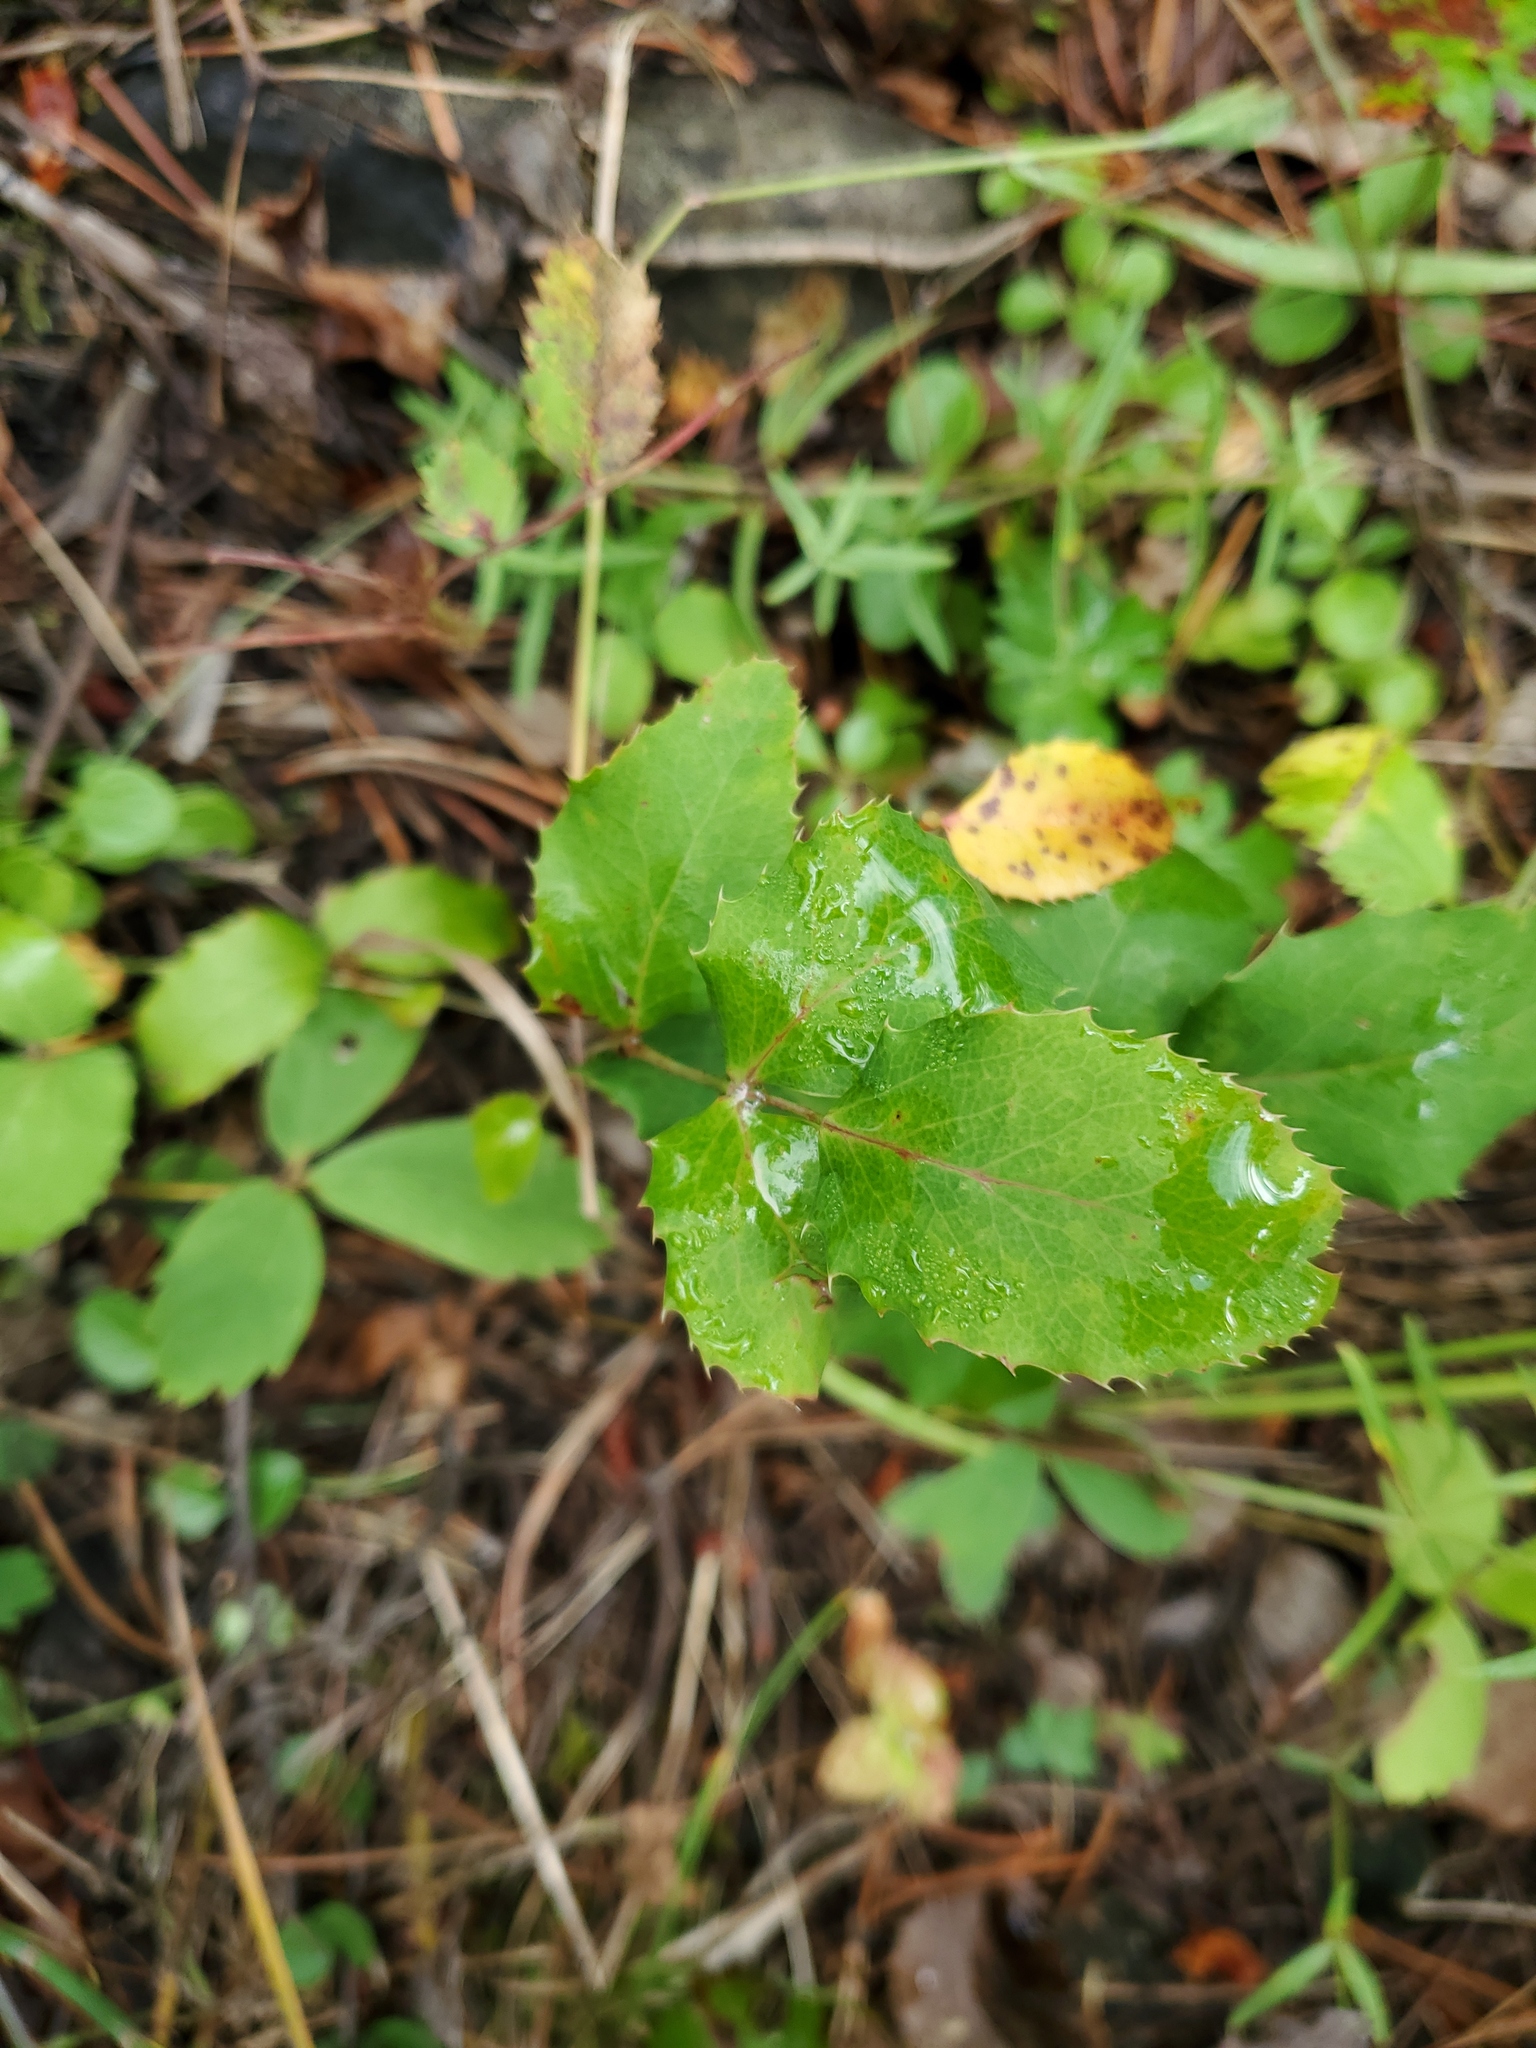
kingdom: Plantae
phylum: Tracheophyta
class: Magnoliopsida
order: Ranunculales
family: Berberidaceae
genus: Mahonia
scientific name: Mahonia repens
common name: Creeping oregon-grape
